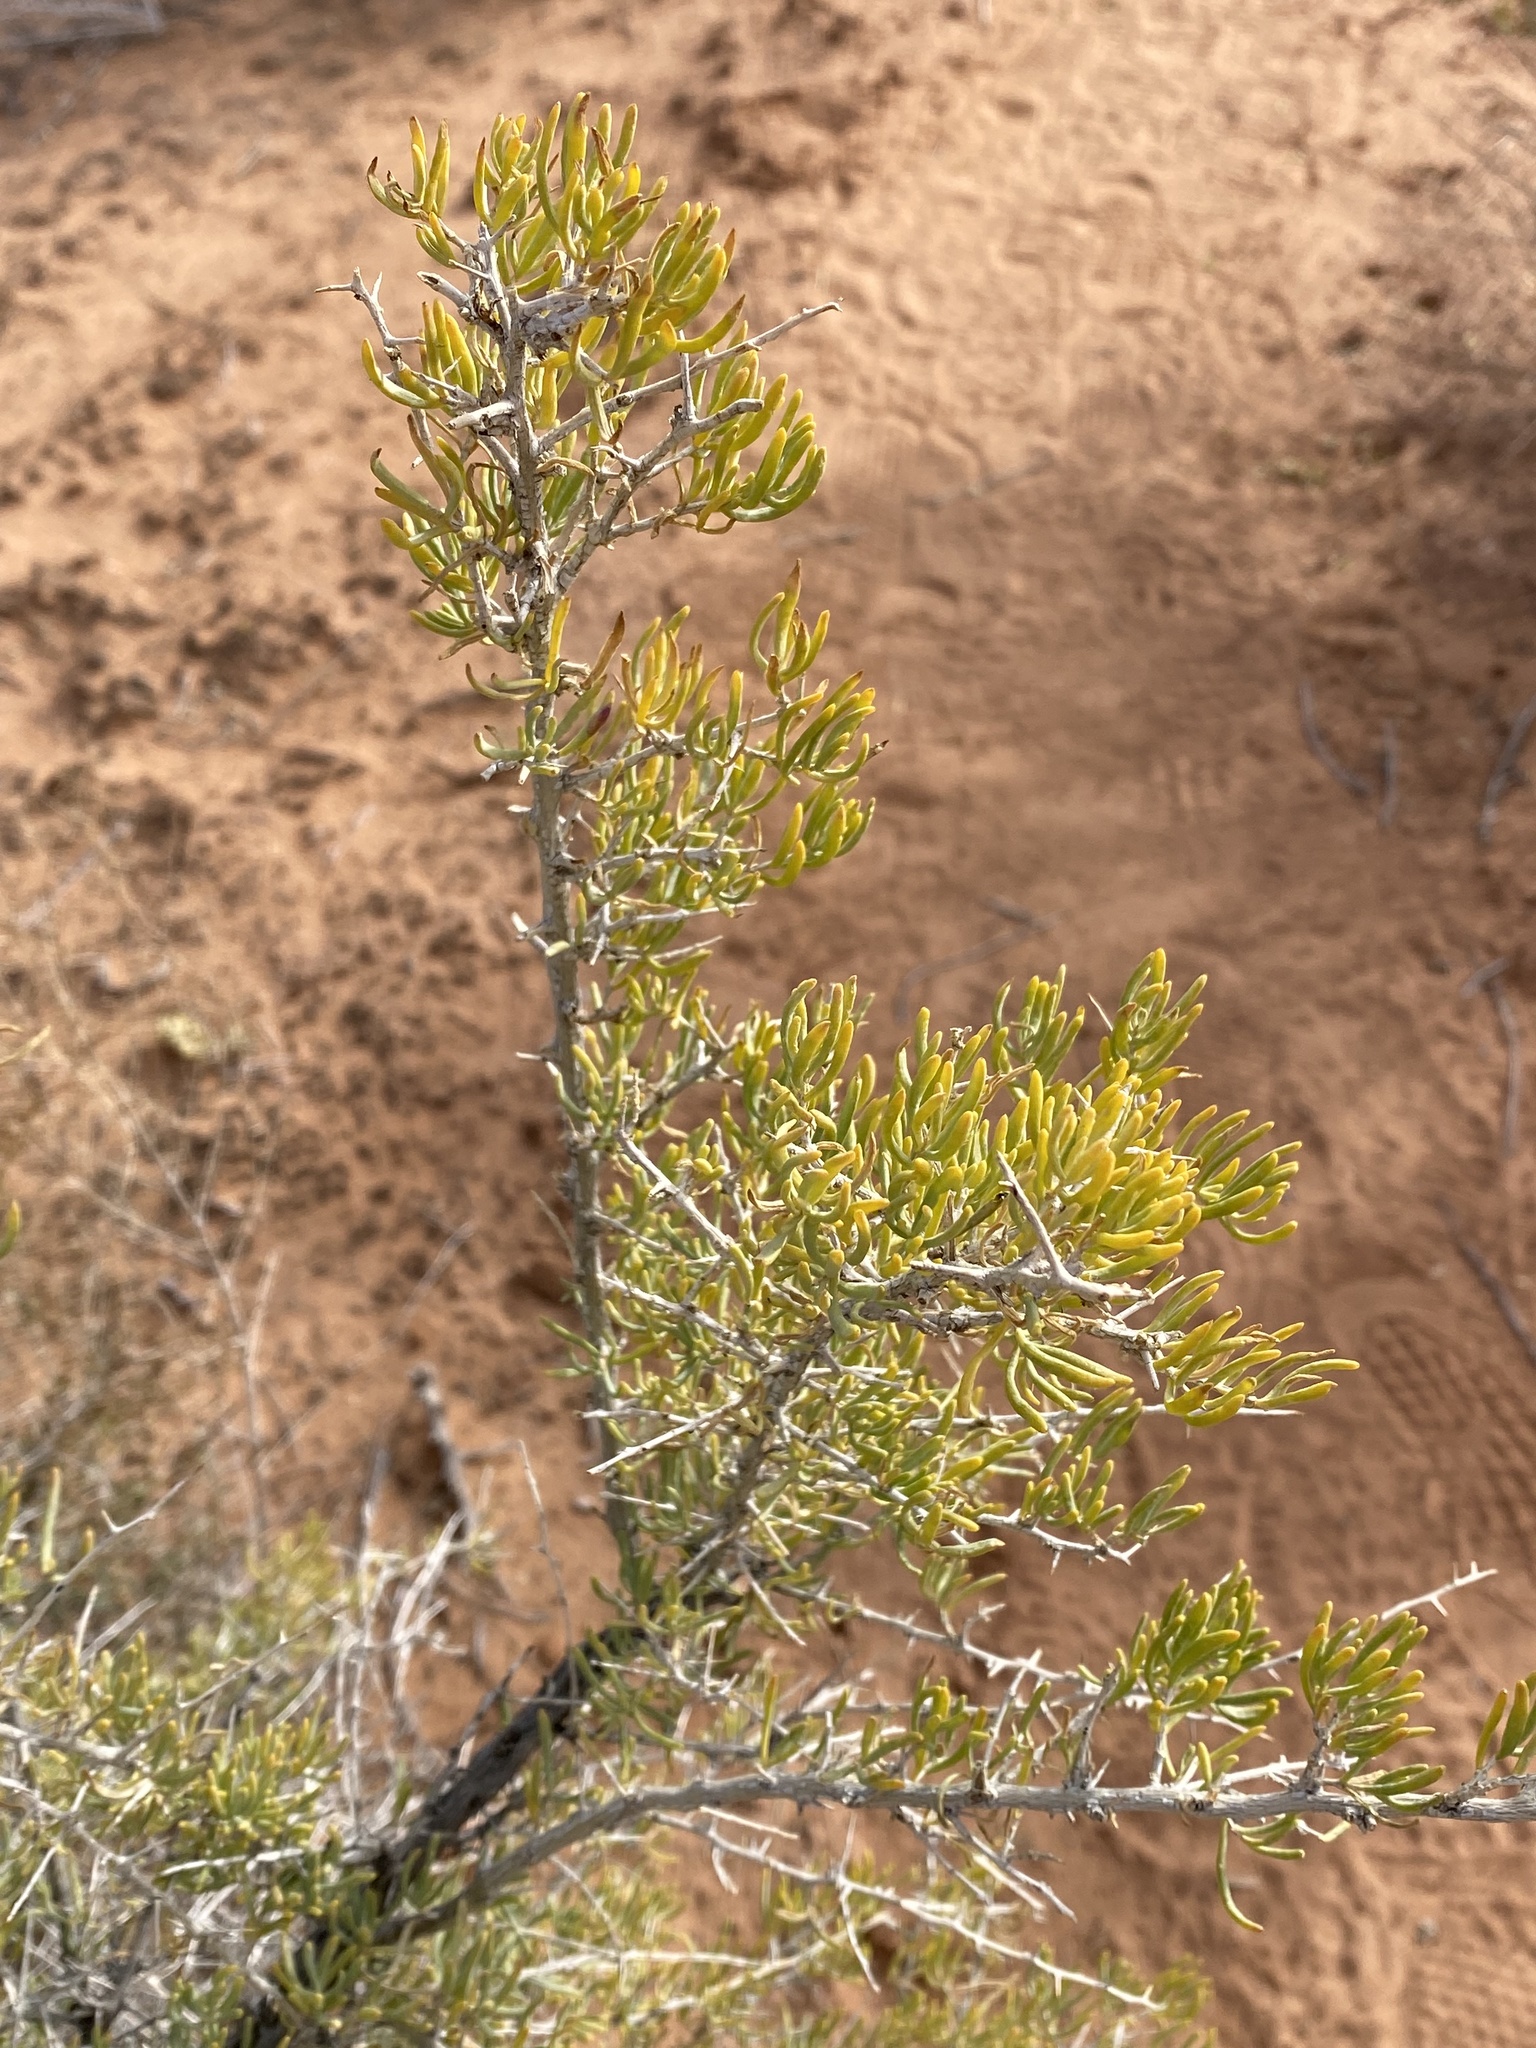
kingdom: Plantae
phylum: Tracheophyta
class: Magnoliopsida
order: Caryophyllales
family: Sarcobataceae
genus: Sarcobatus
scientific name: Sarcobatus vermiculatus
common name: Greasewood
